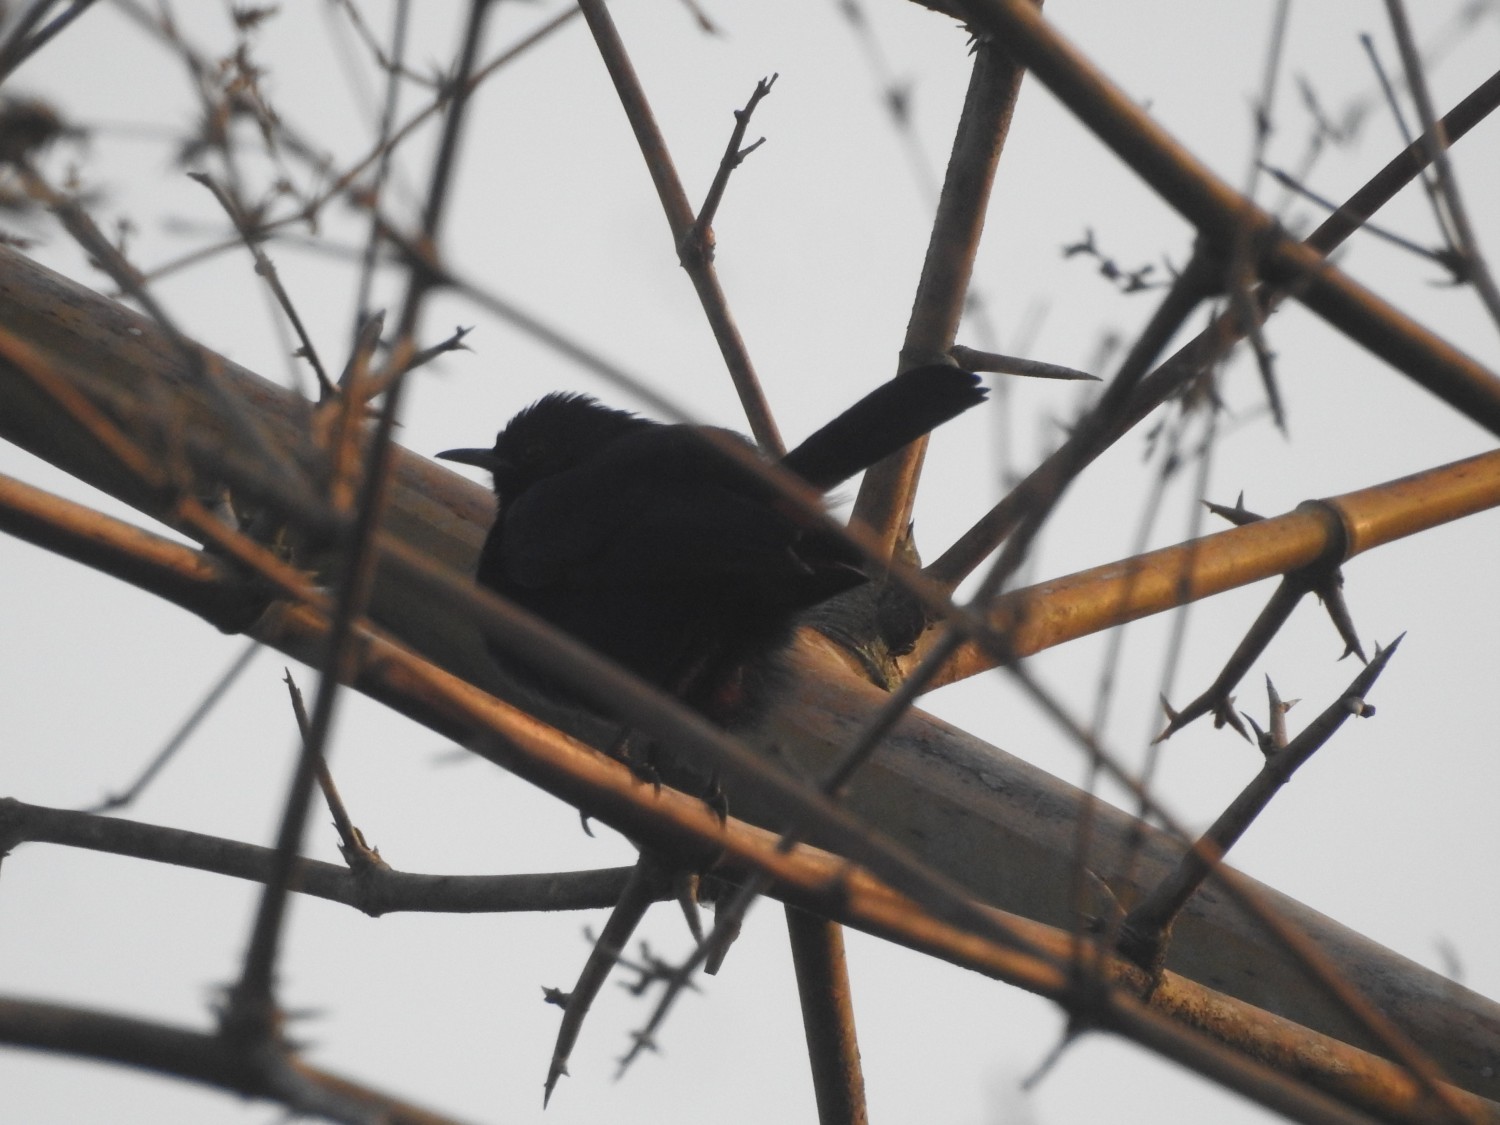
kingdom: Animalia
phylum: Chordata
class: Aves
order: Passeriformes
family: Muscicapidae
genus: Saxicoloides
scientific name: Saxicoloides fulicatus
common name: Indian robin
